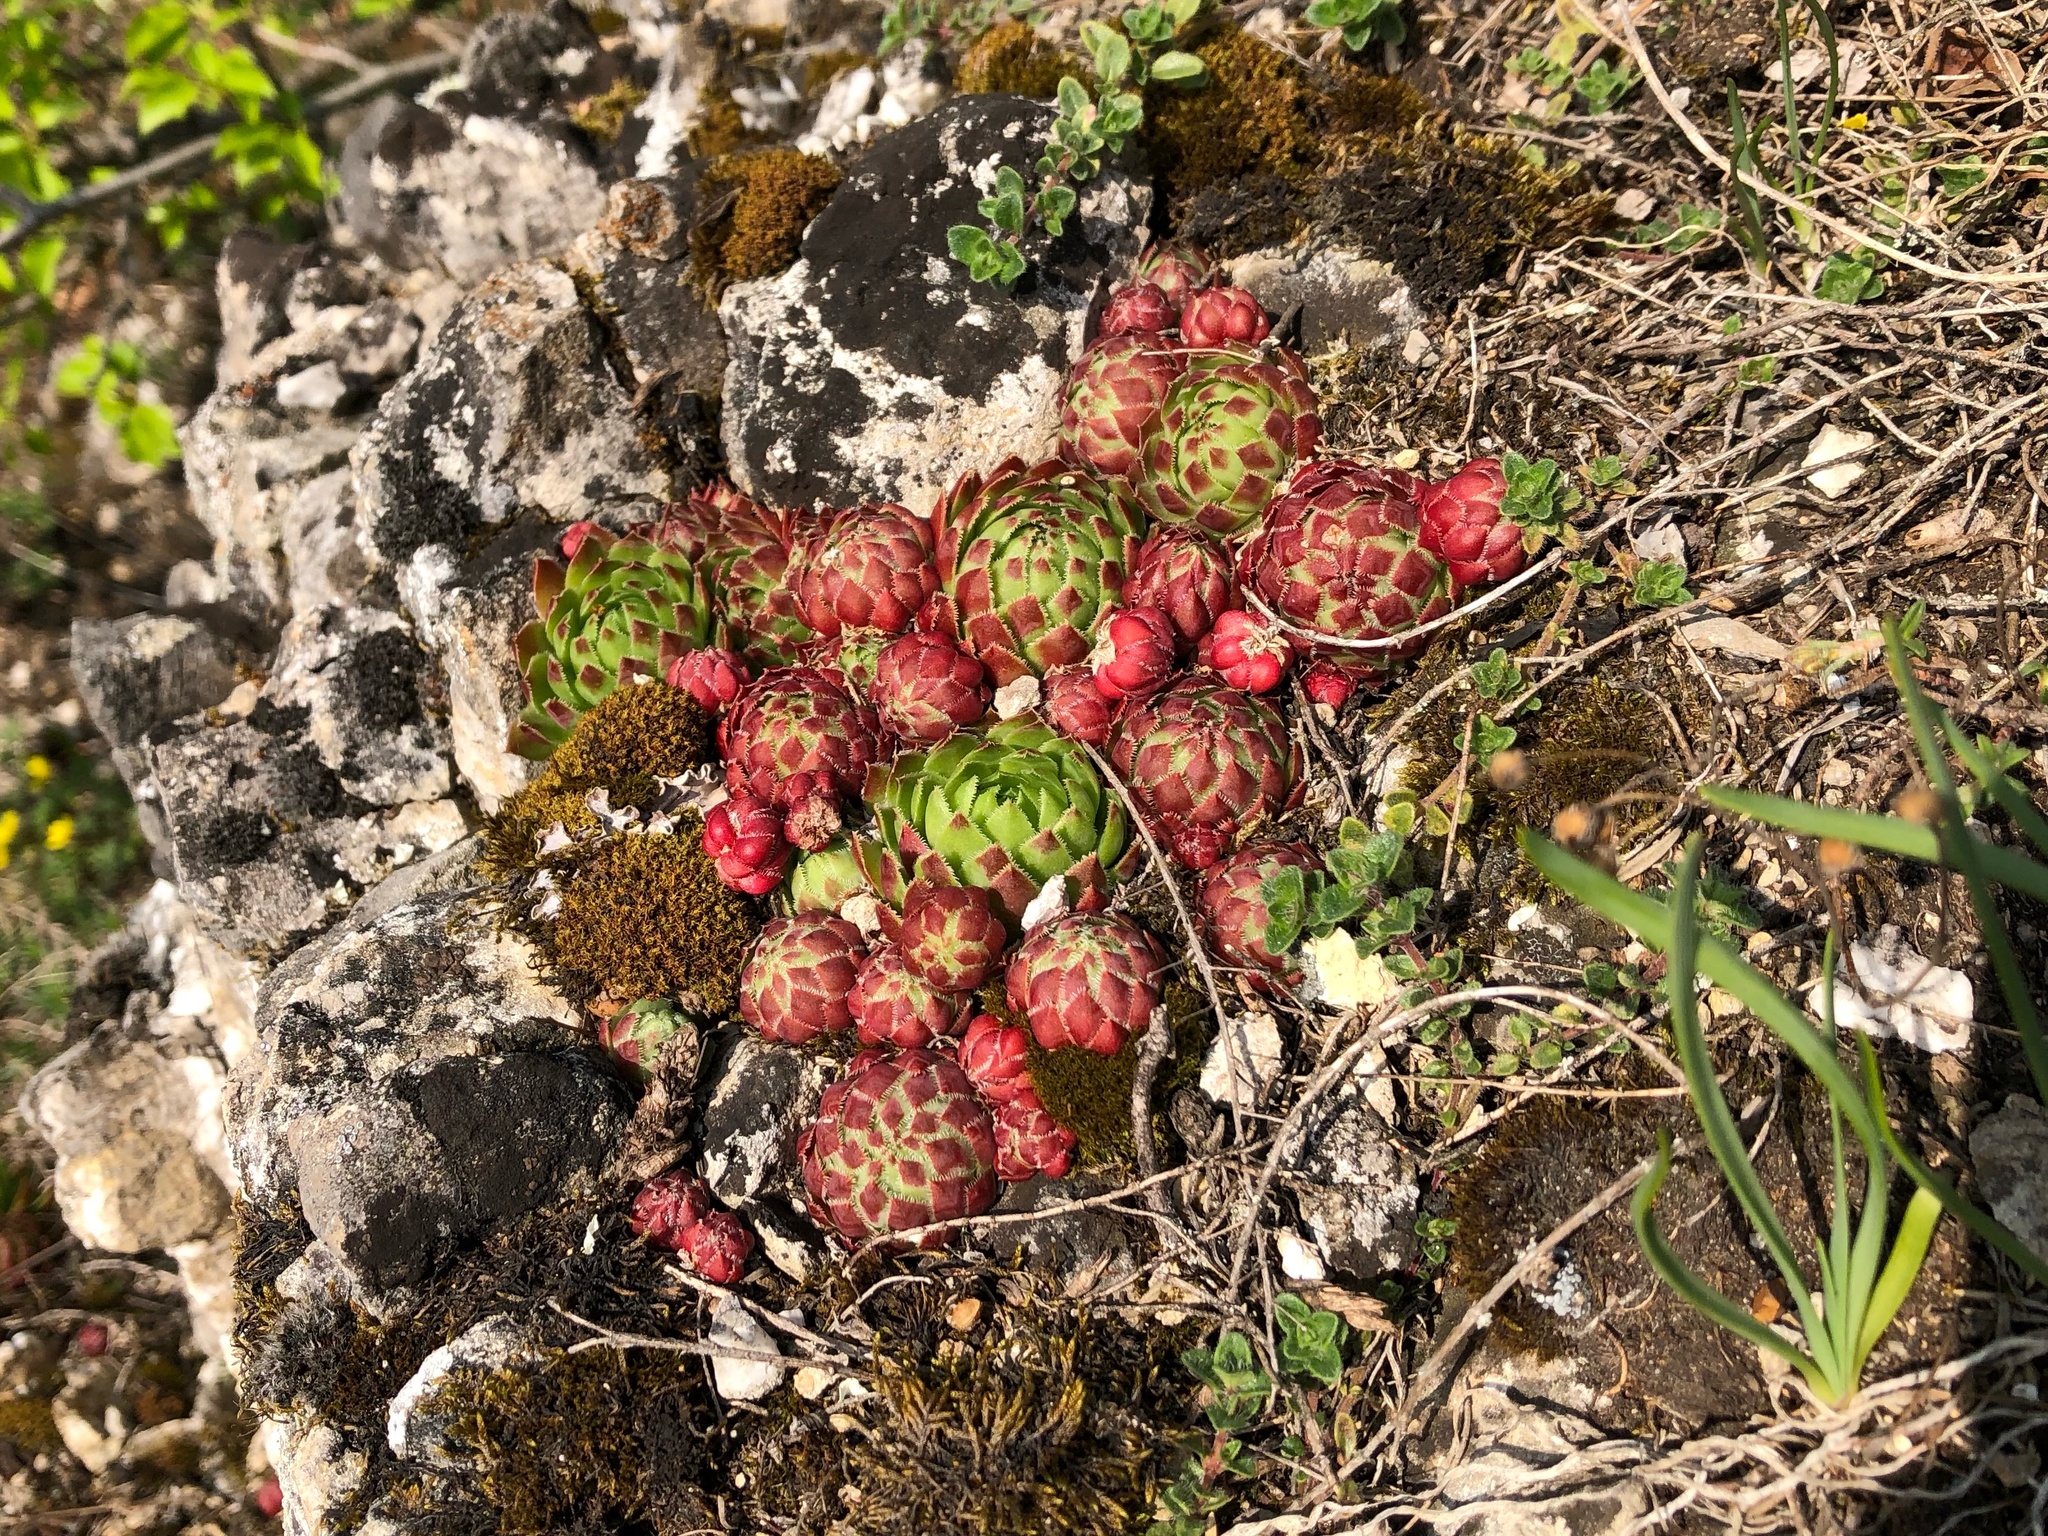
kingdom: Plantae
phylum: Tracheophyta
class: Magnoliopsida
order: Saxifragales
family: Crassulaceae
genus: Sempervivum
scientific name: Sempervivum globiferum
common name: Rolling hen-and-chicks
